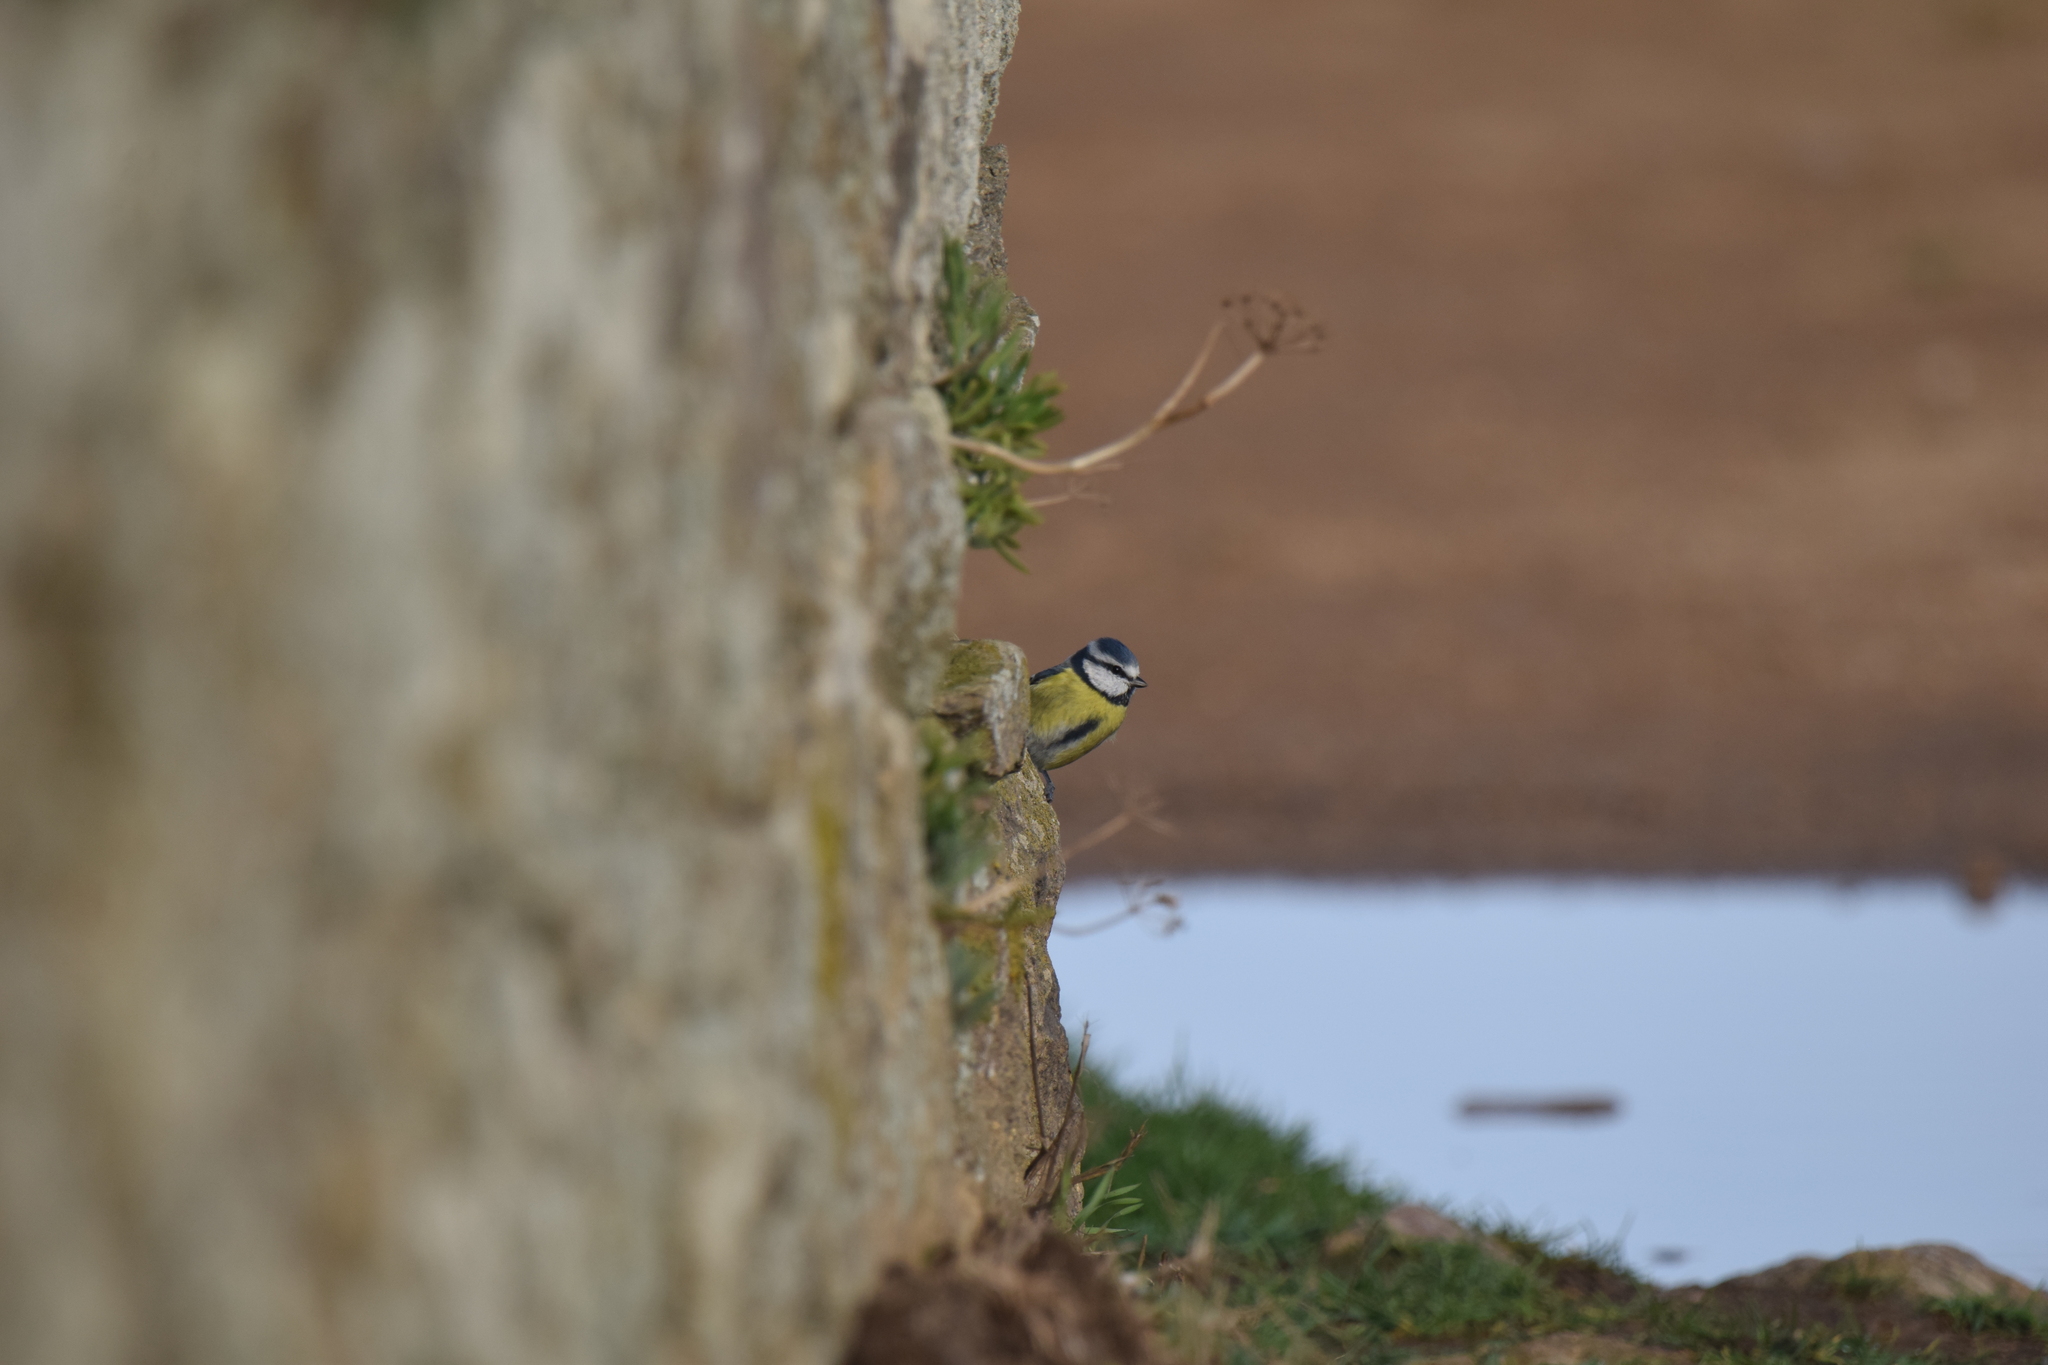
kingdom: Animalia
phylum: Chordata
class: Aves
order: Passeriformes
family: Paridae
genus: Cyanistes
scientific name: Cyanistes caeruleus
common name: Eurasian blue tit
